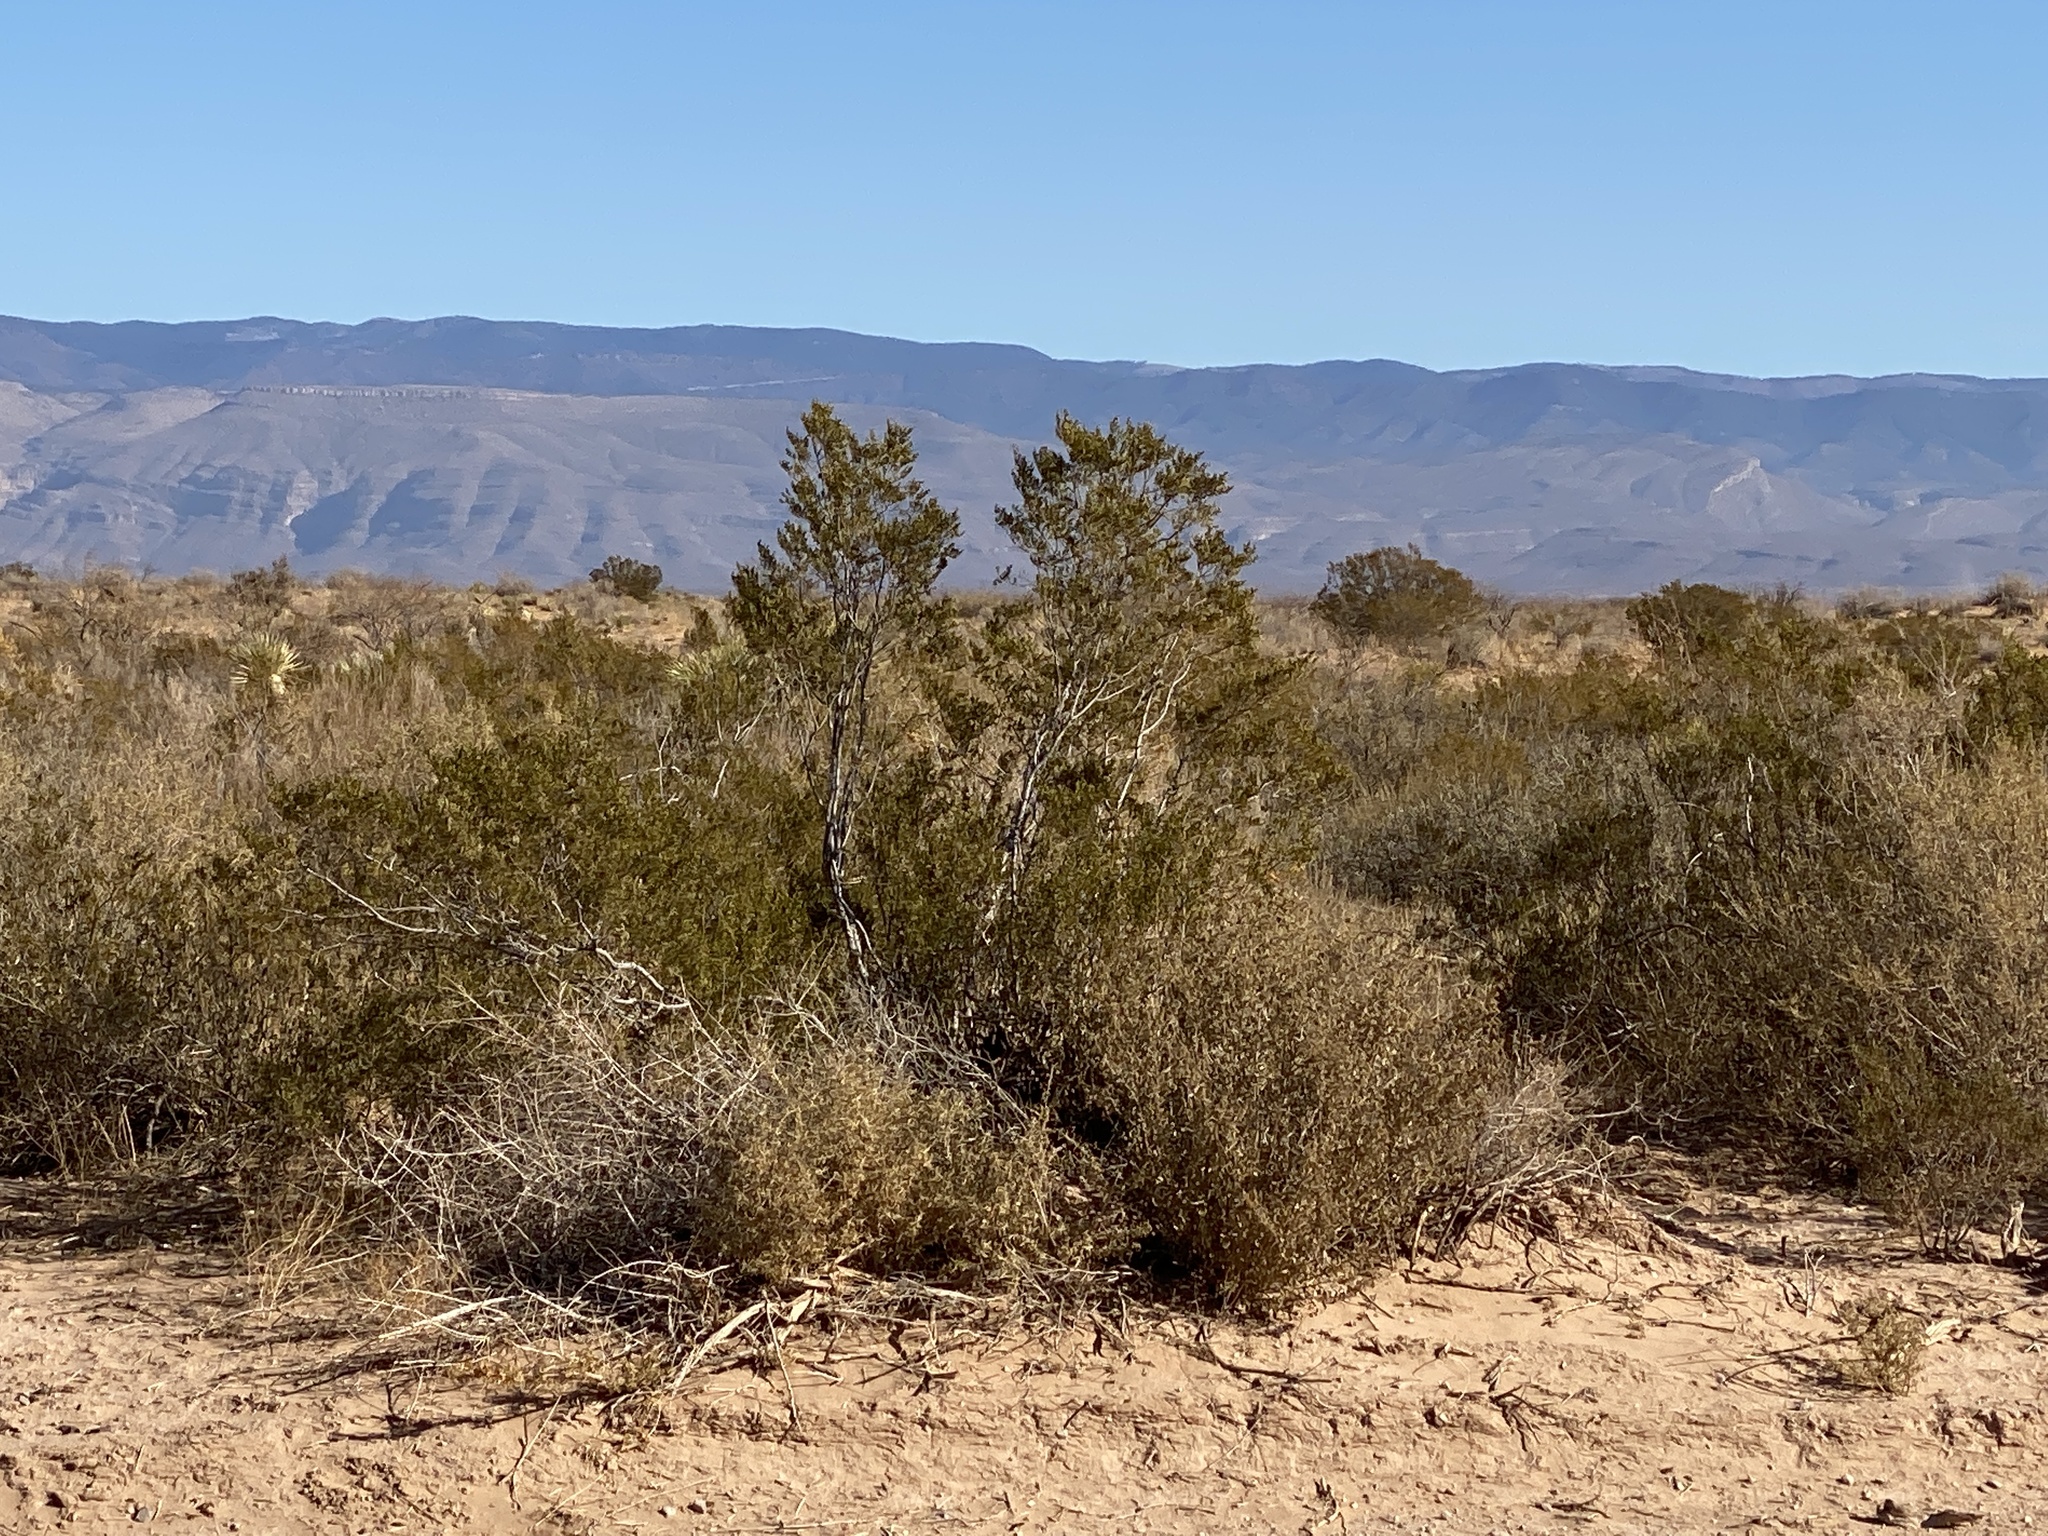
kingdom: Plantae
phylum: Tracheophyta
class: Magnoliopsida
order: Zygophyllales
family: Zygophyllaceae
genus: Larrea
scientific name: Larrea tridentata
